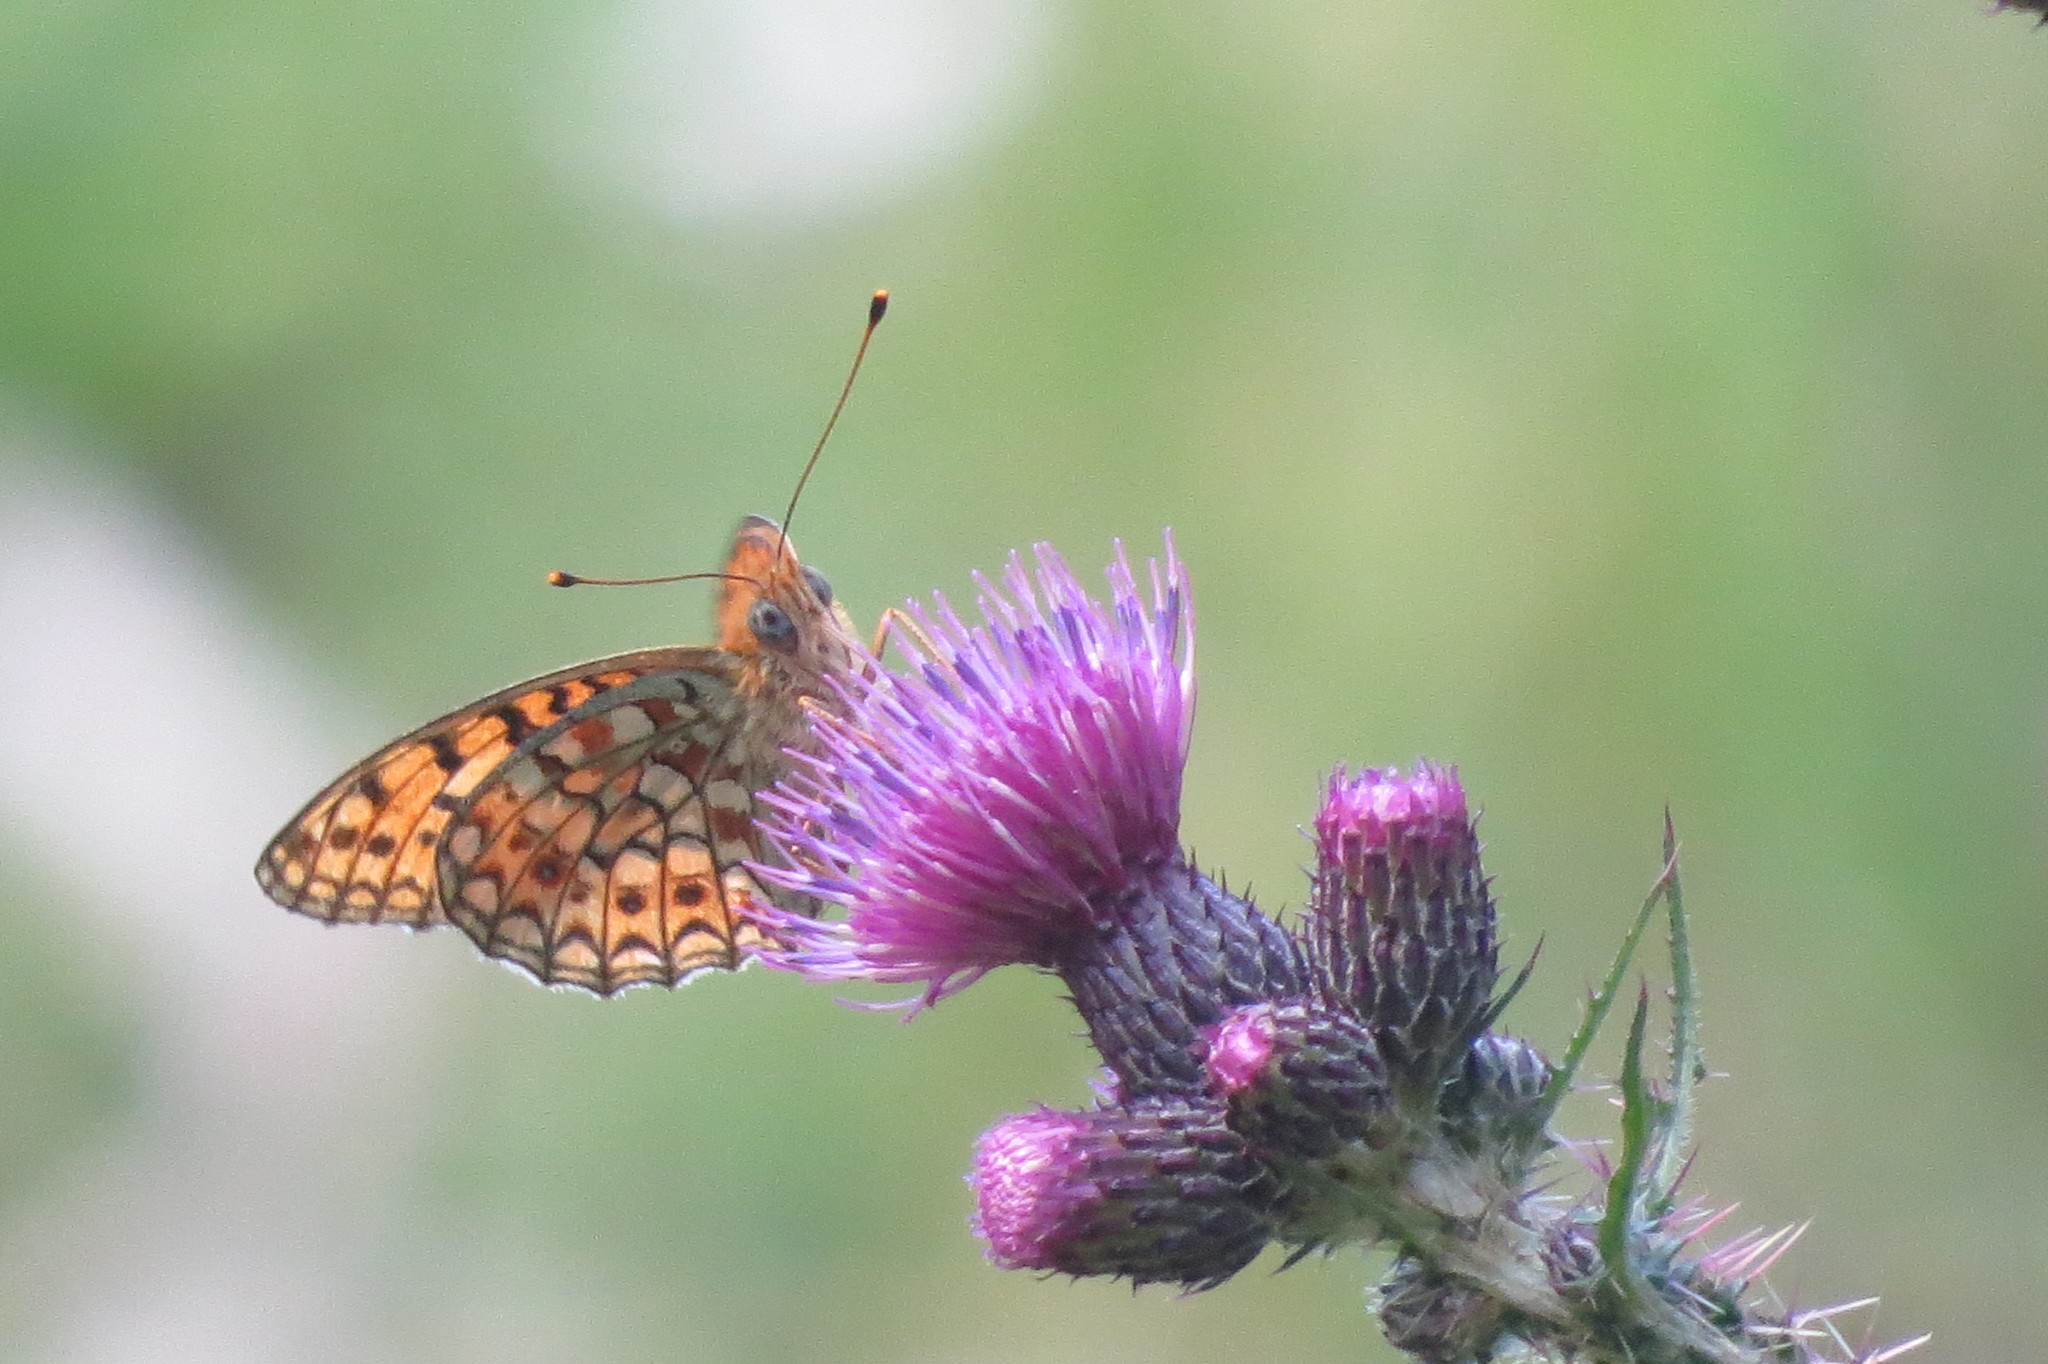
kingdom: Animalia
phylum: Arthropoda
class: Insecta
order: Lepidoptera
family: Nymphalidae
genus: Fabriciana
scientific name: Fabriciana niobe
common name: Niobe fritillary
